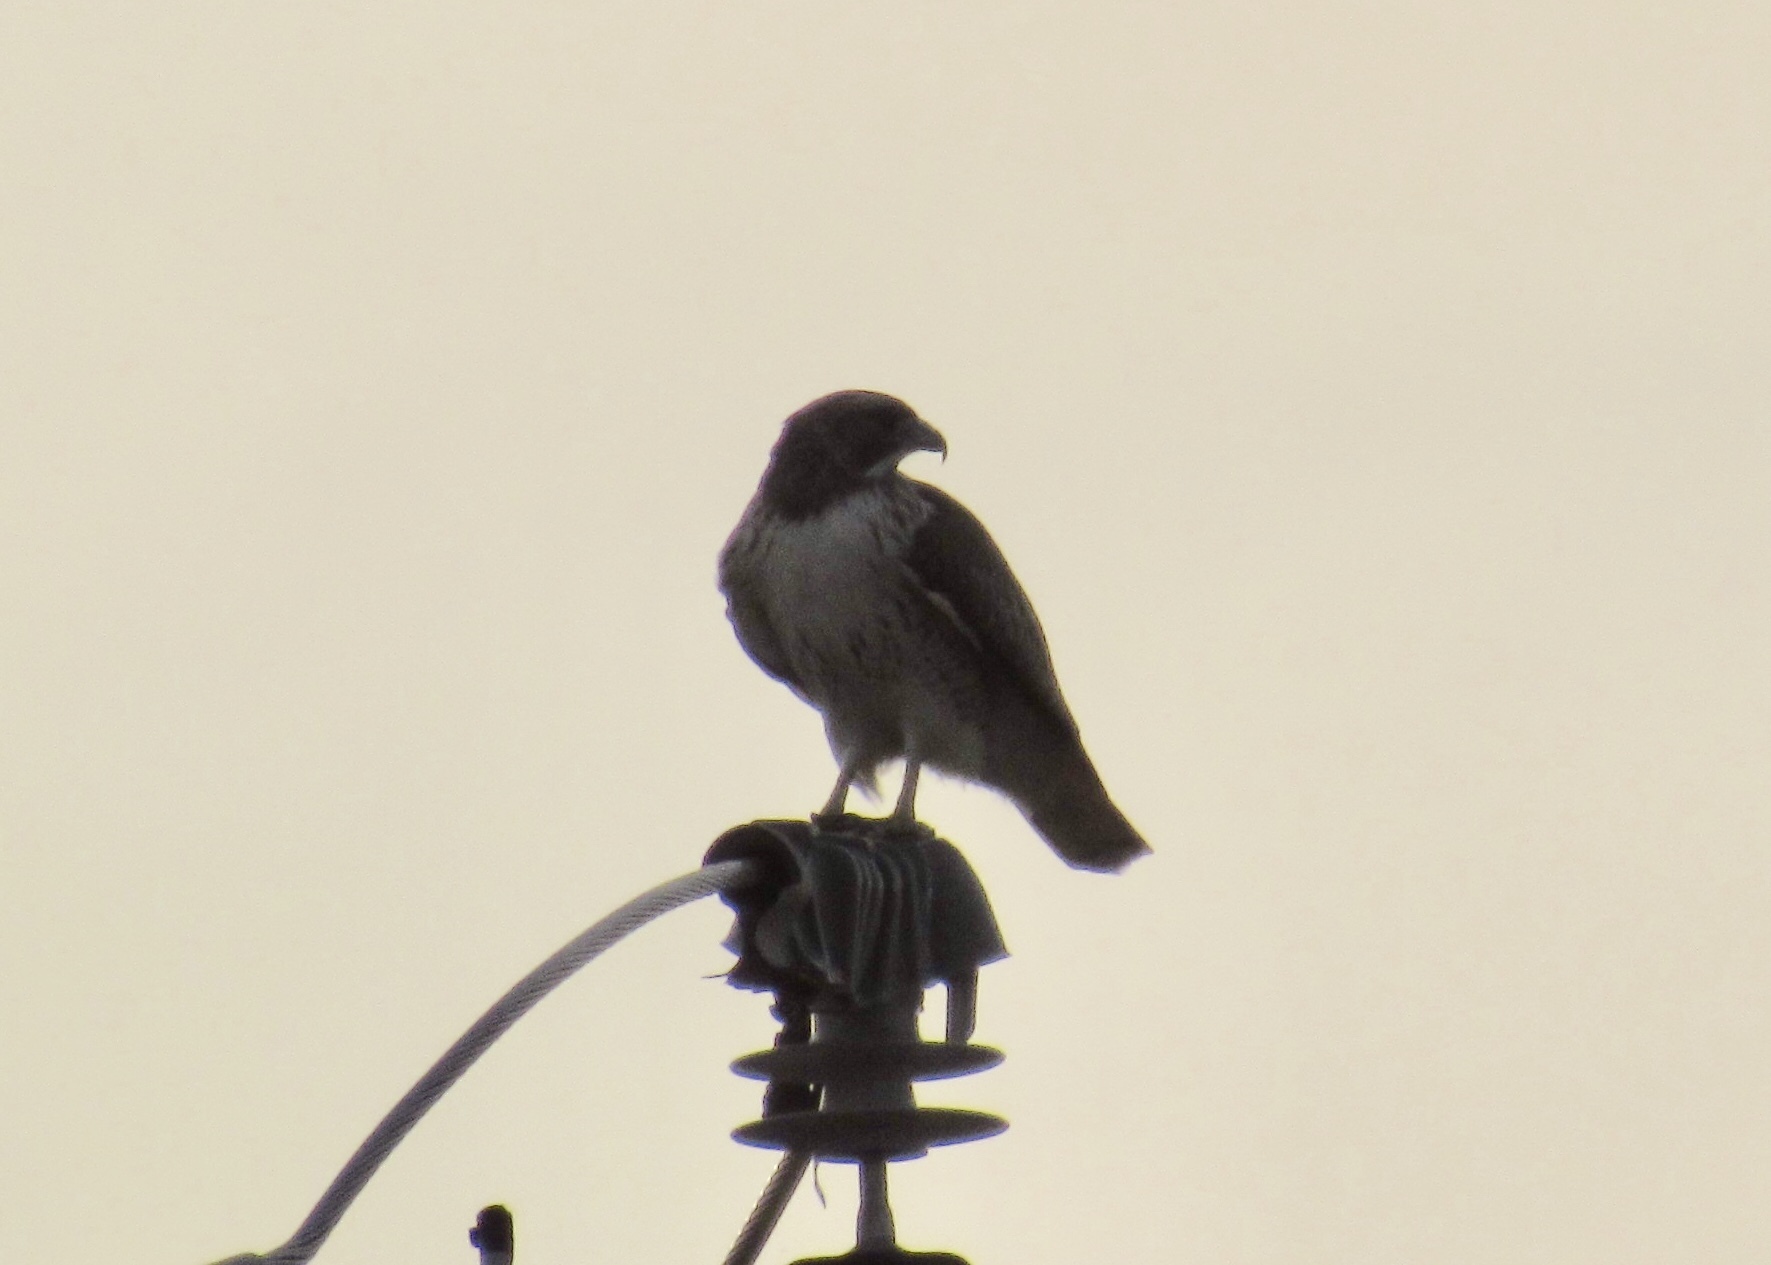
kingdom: Animalia
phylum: Chordata
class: Aves
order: Accipitriformes
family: Accipitridae
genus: Buteo
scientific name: Buteo jamaicensis
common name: Red-tailed hawk
